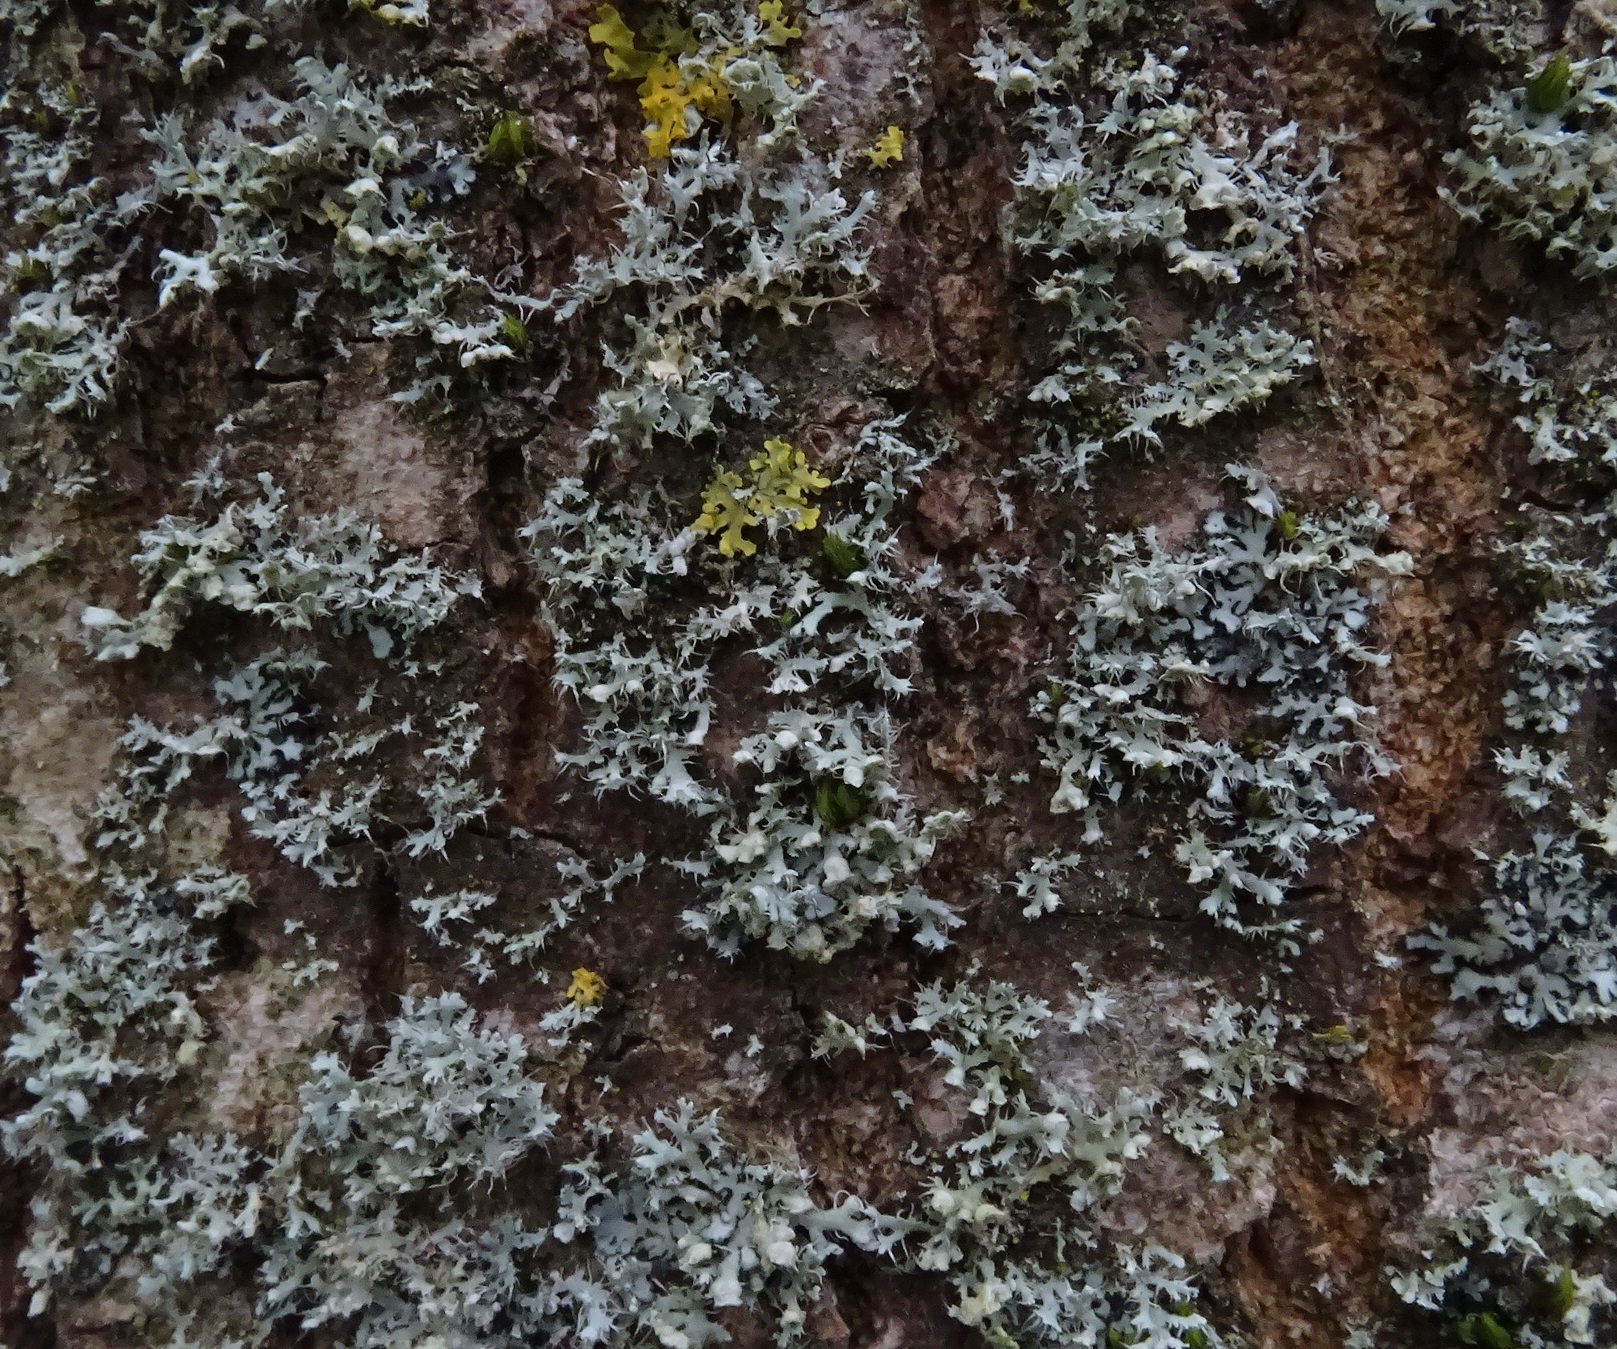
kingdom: Fungi
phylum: Ascomycota
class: Lecanoromycetes
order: Caliciales
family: Physciaceae
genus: Physcia
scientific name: Physcia adscendens
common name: Hooded rosette lichen
